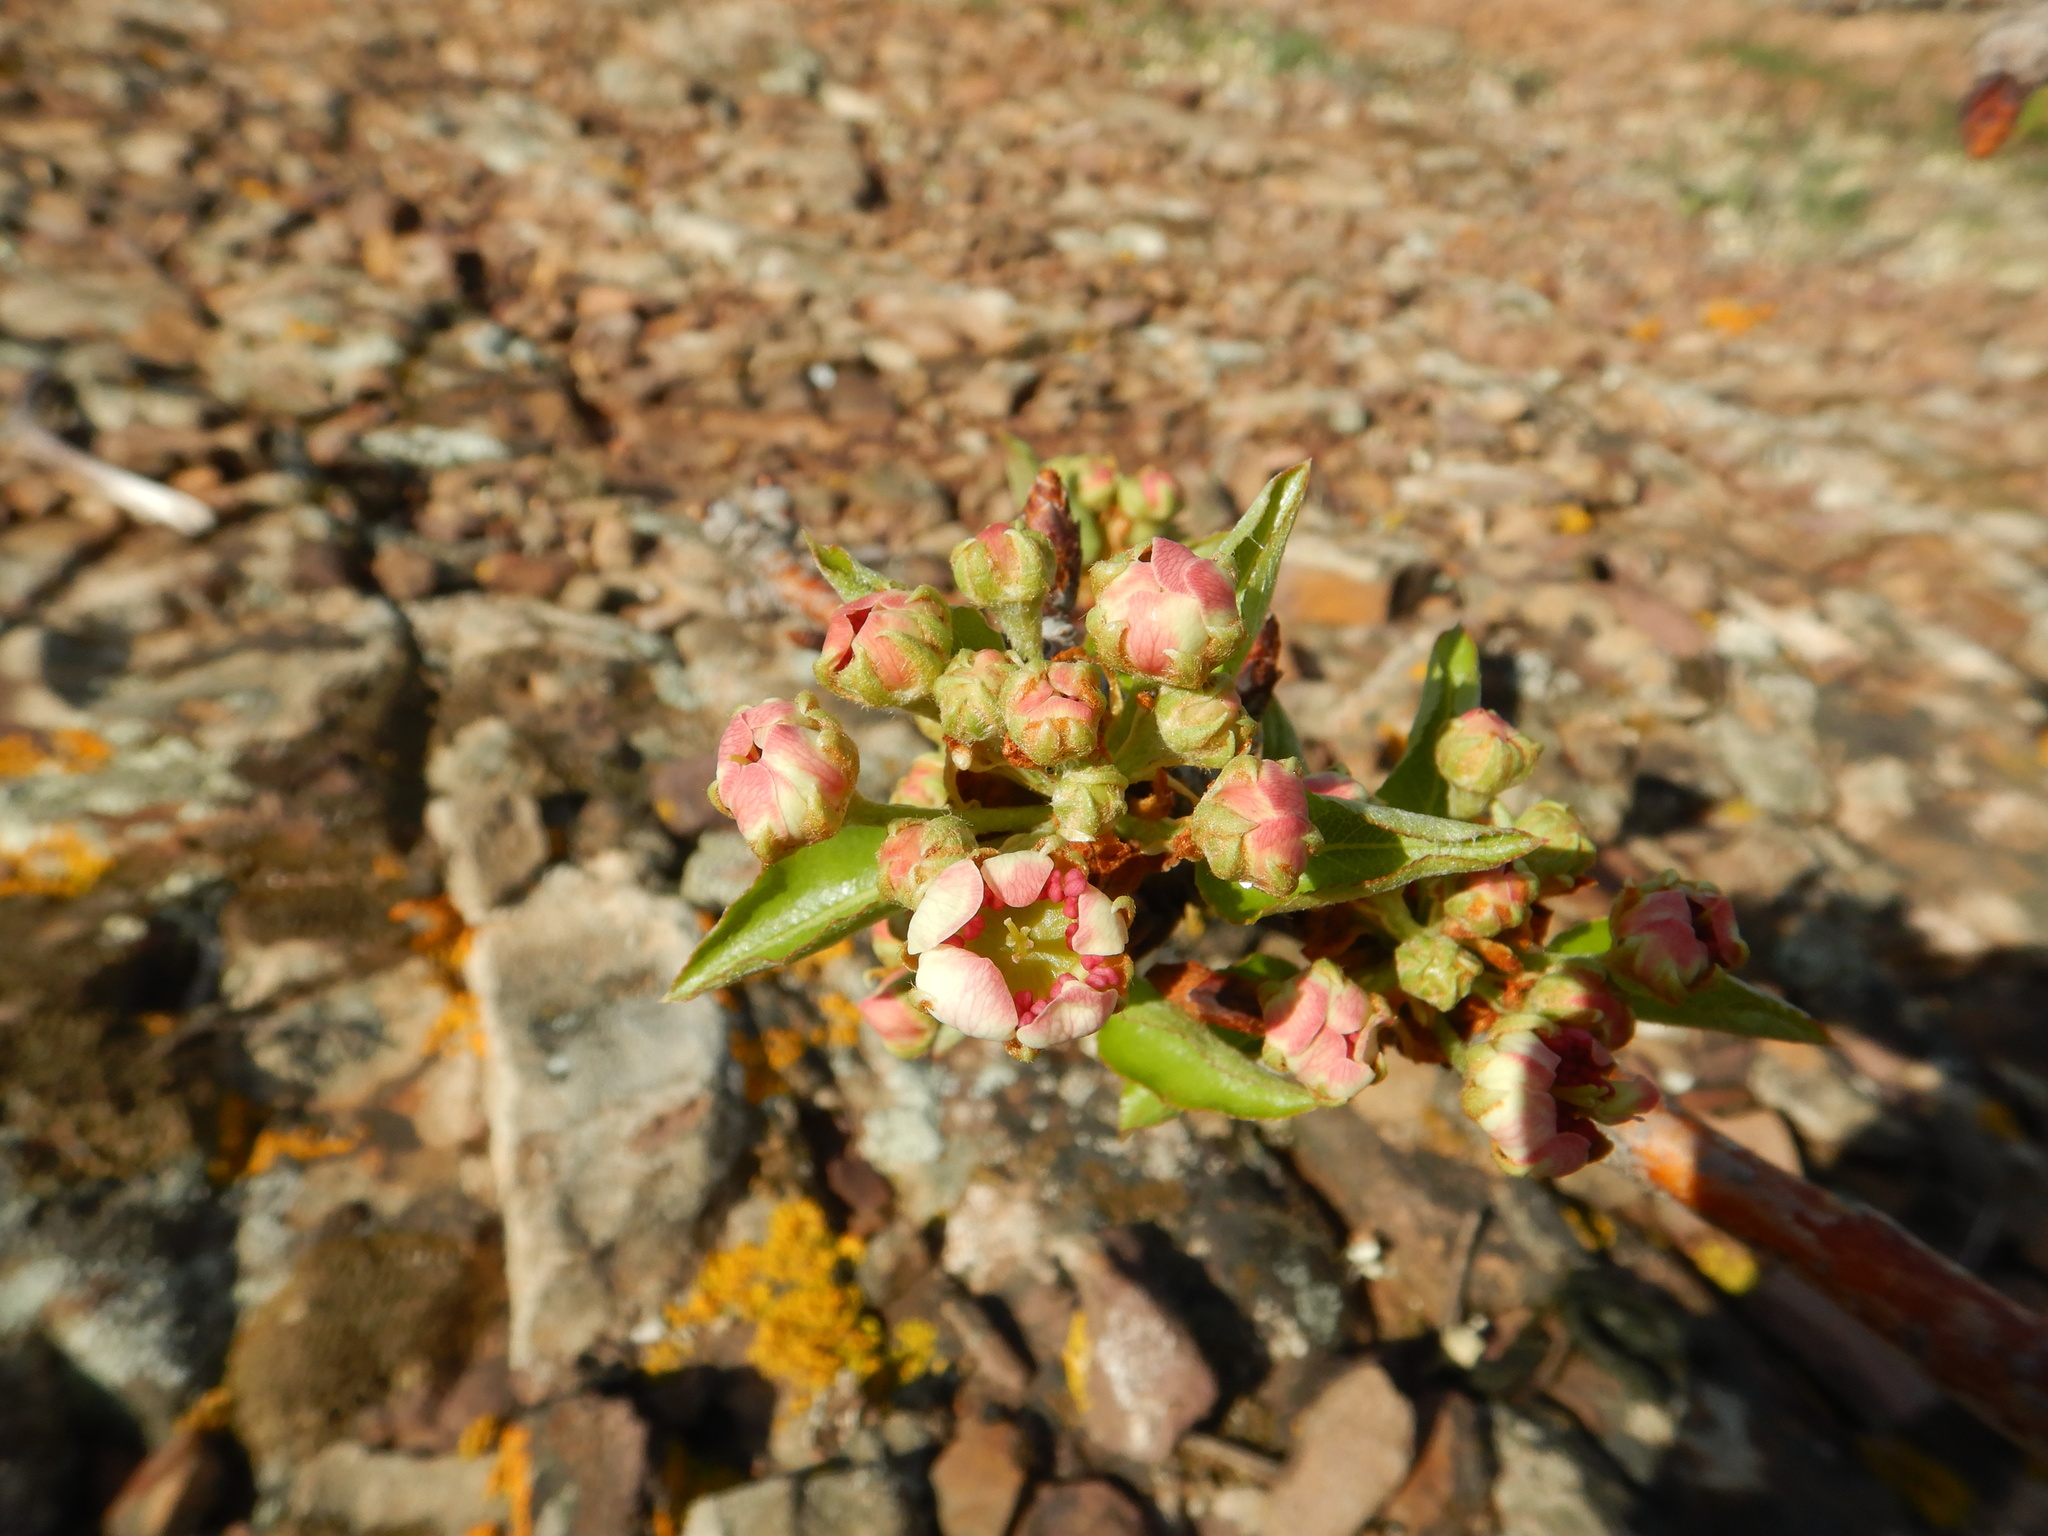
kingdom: Plantae
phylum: Tracheophyta
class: Magnoliopsida
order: Rosales
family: Rosaceae
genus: Pyrus
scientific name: Pyrus bourgaeana
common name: Iberian pear
